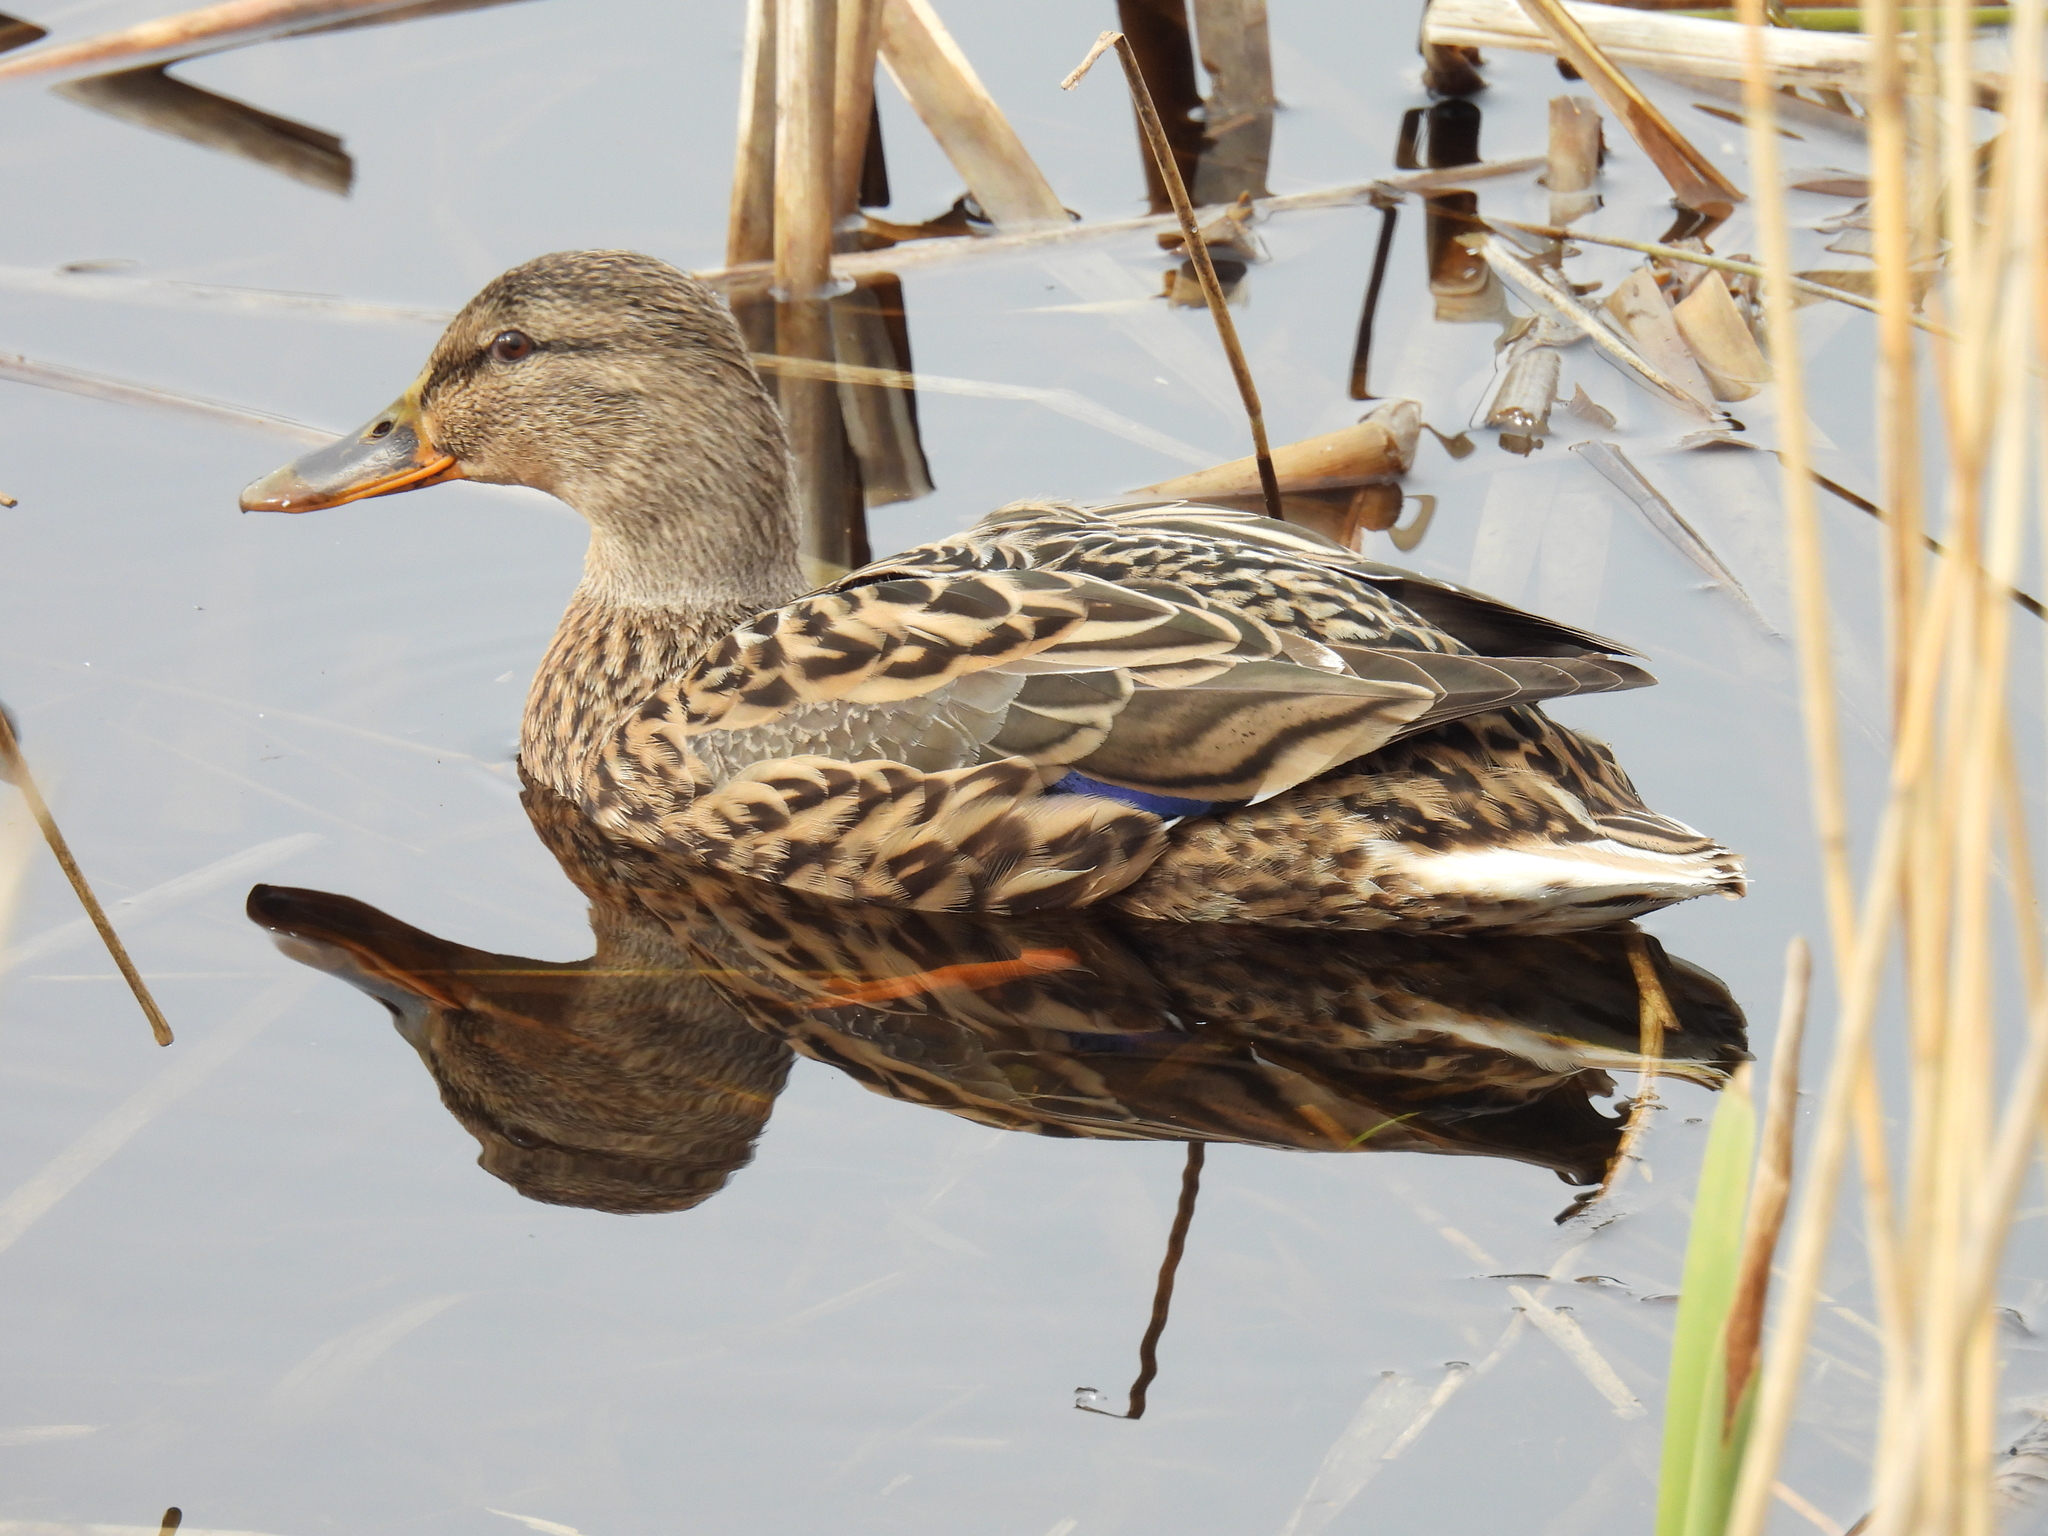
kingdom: Animalia
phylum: Chordata
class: Aves
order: Anseriformes
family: Anatidae
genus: Anas
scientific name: Anas platyrhynchos
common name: Mallard
